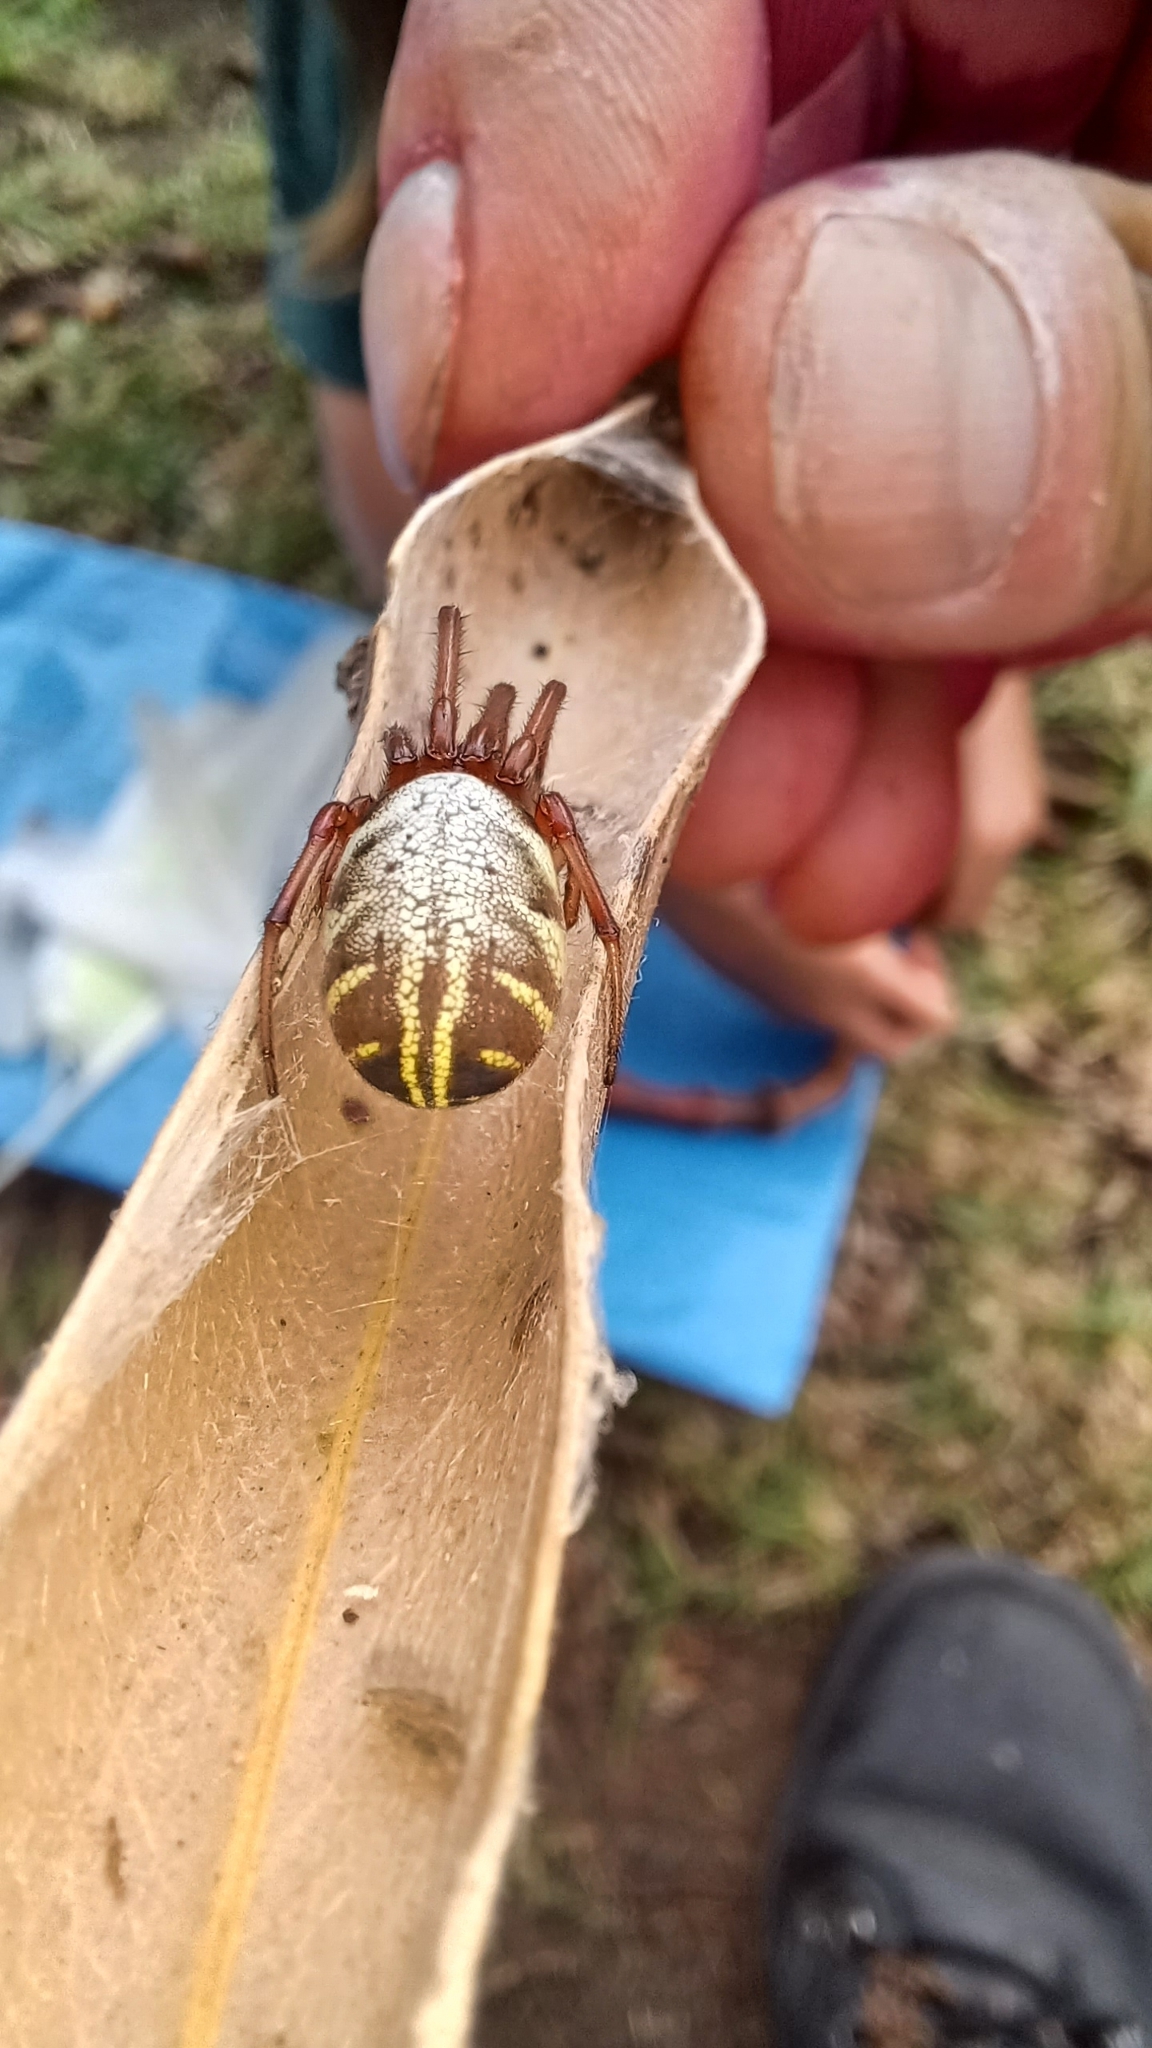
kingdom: Animalia
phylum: Arthropoda
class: Arachnida
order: Araneae
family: Araneidae
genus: Phonognatha
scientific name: Phonognatha graeffei
